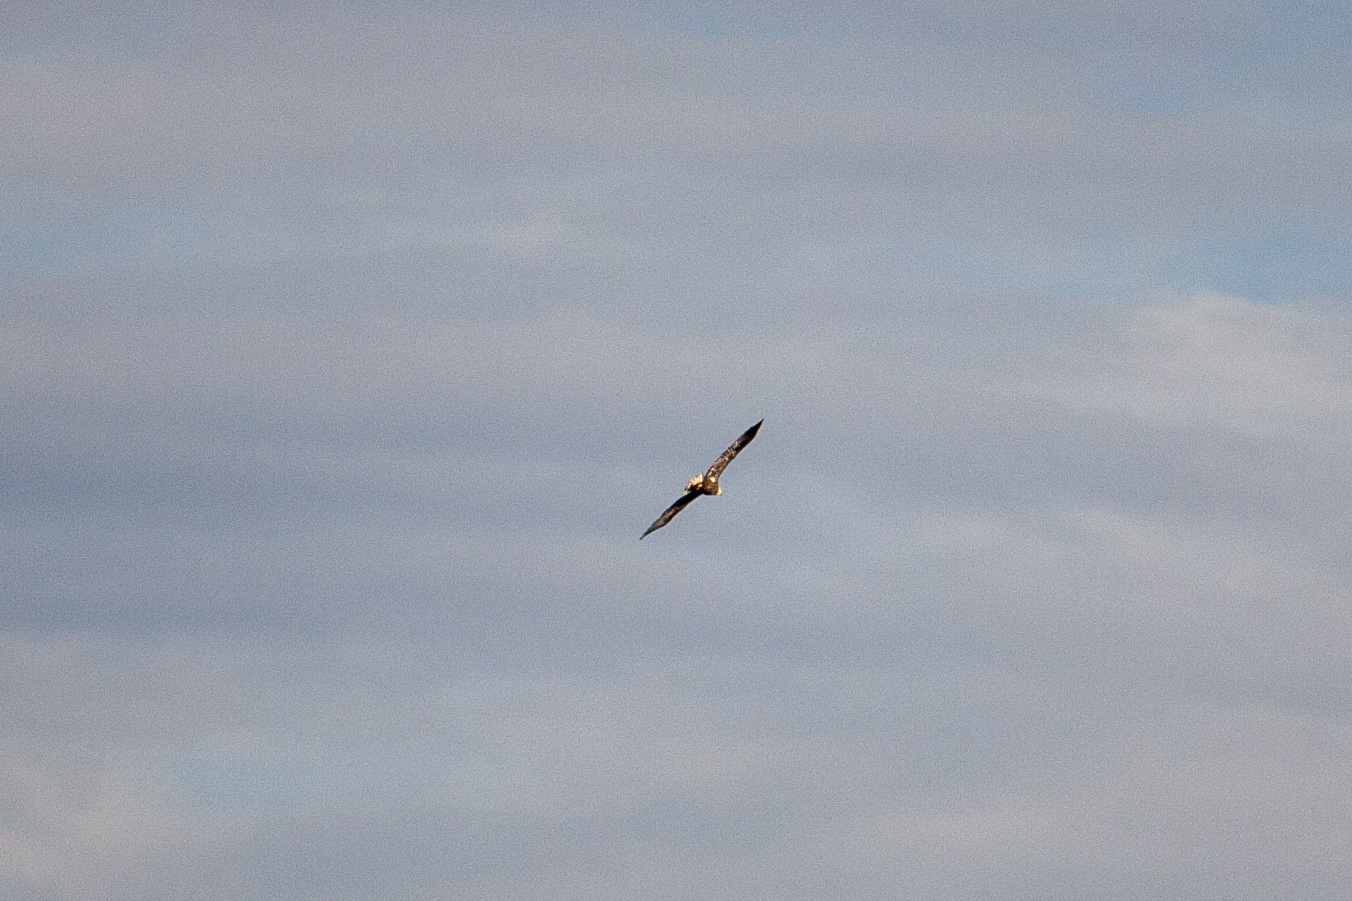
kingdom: Animalia
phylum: Chordata
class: Aves
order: Accipitriformes
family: Accipitridae
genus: Haliaeetus
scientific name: Haliaeetus leucocephalus
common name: Bald eagle
